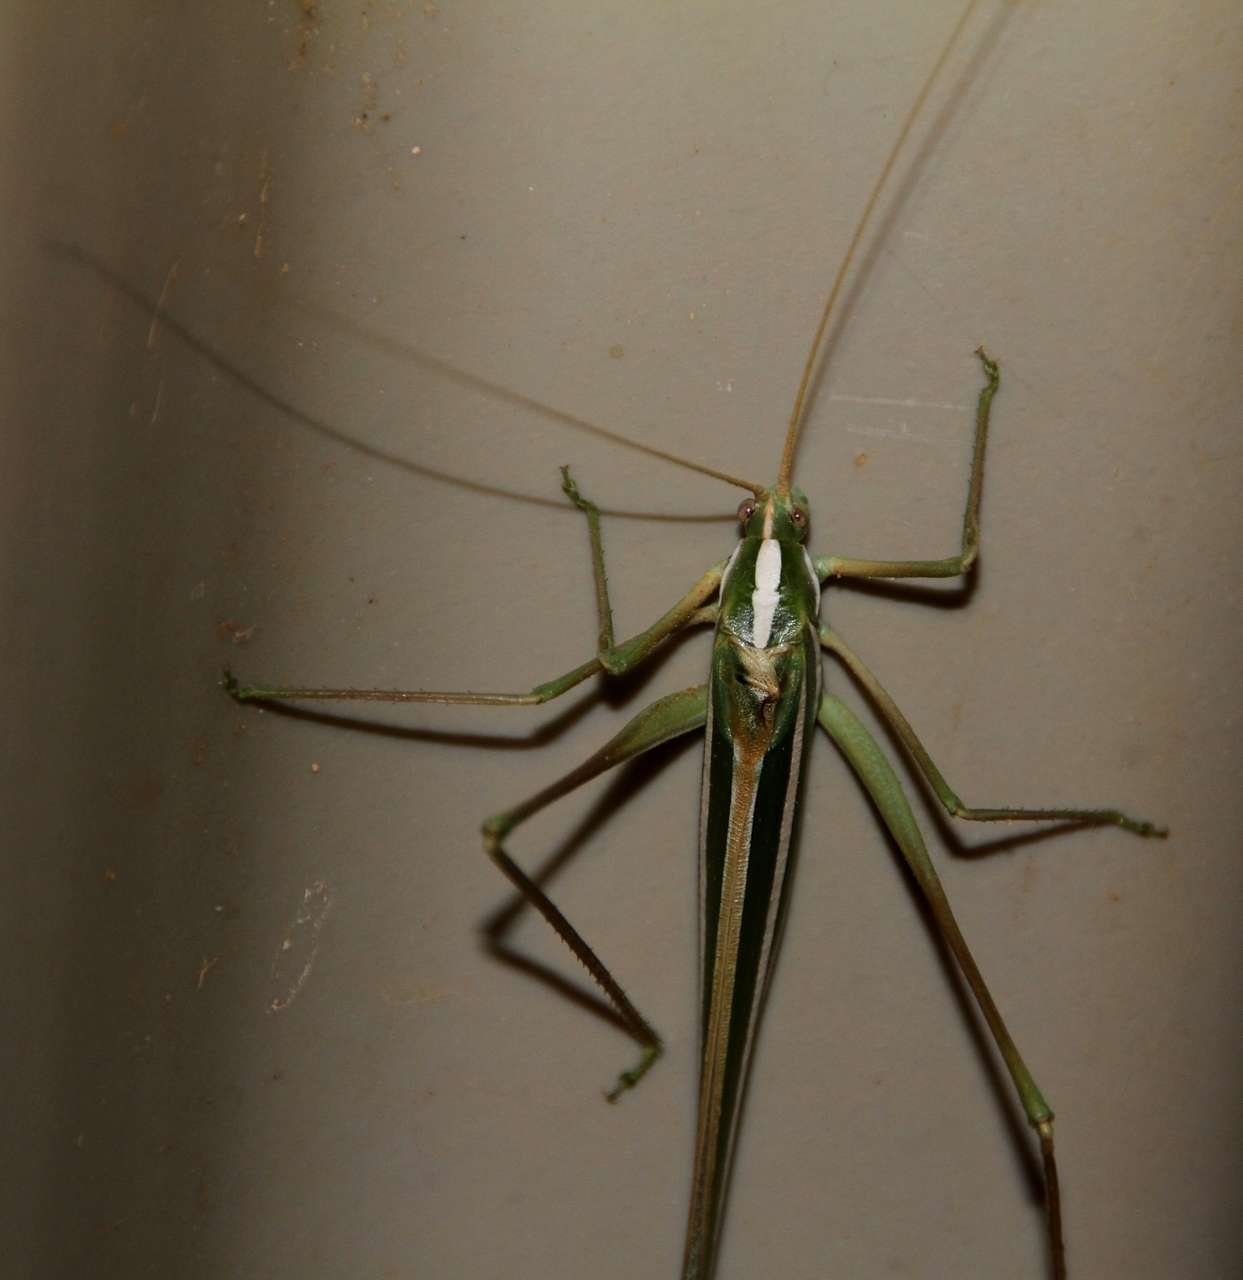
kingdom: Animalia
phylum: Arthropoda
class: Insecta
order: Orthoptera
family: Tettigoniidae
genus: Tinzeda
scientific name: Tinzeda sororoides
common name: Southern tinzeda
